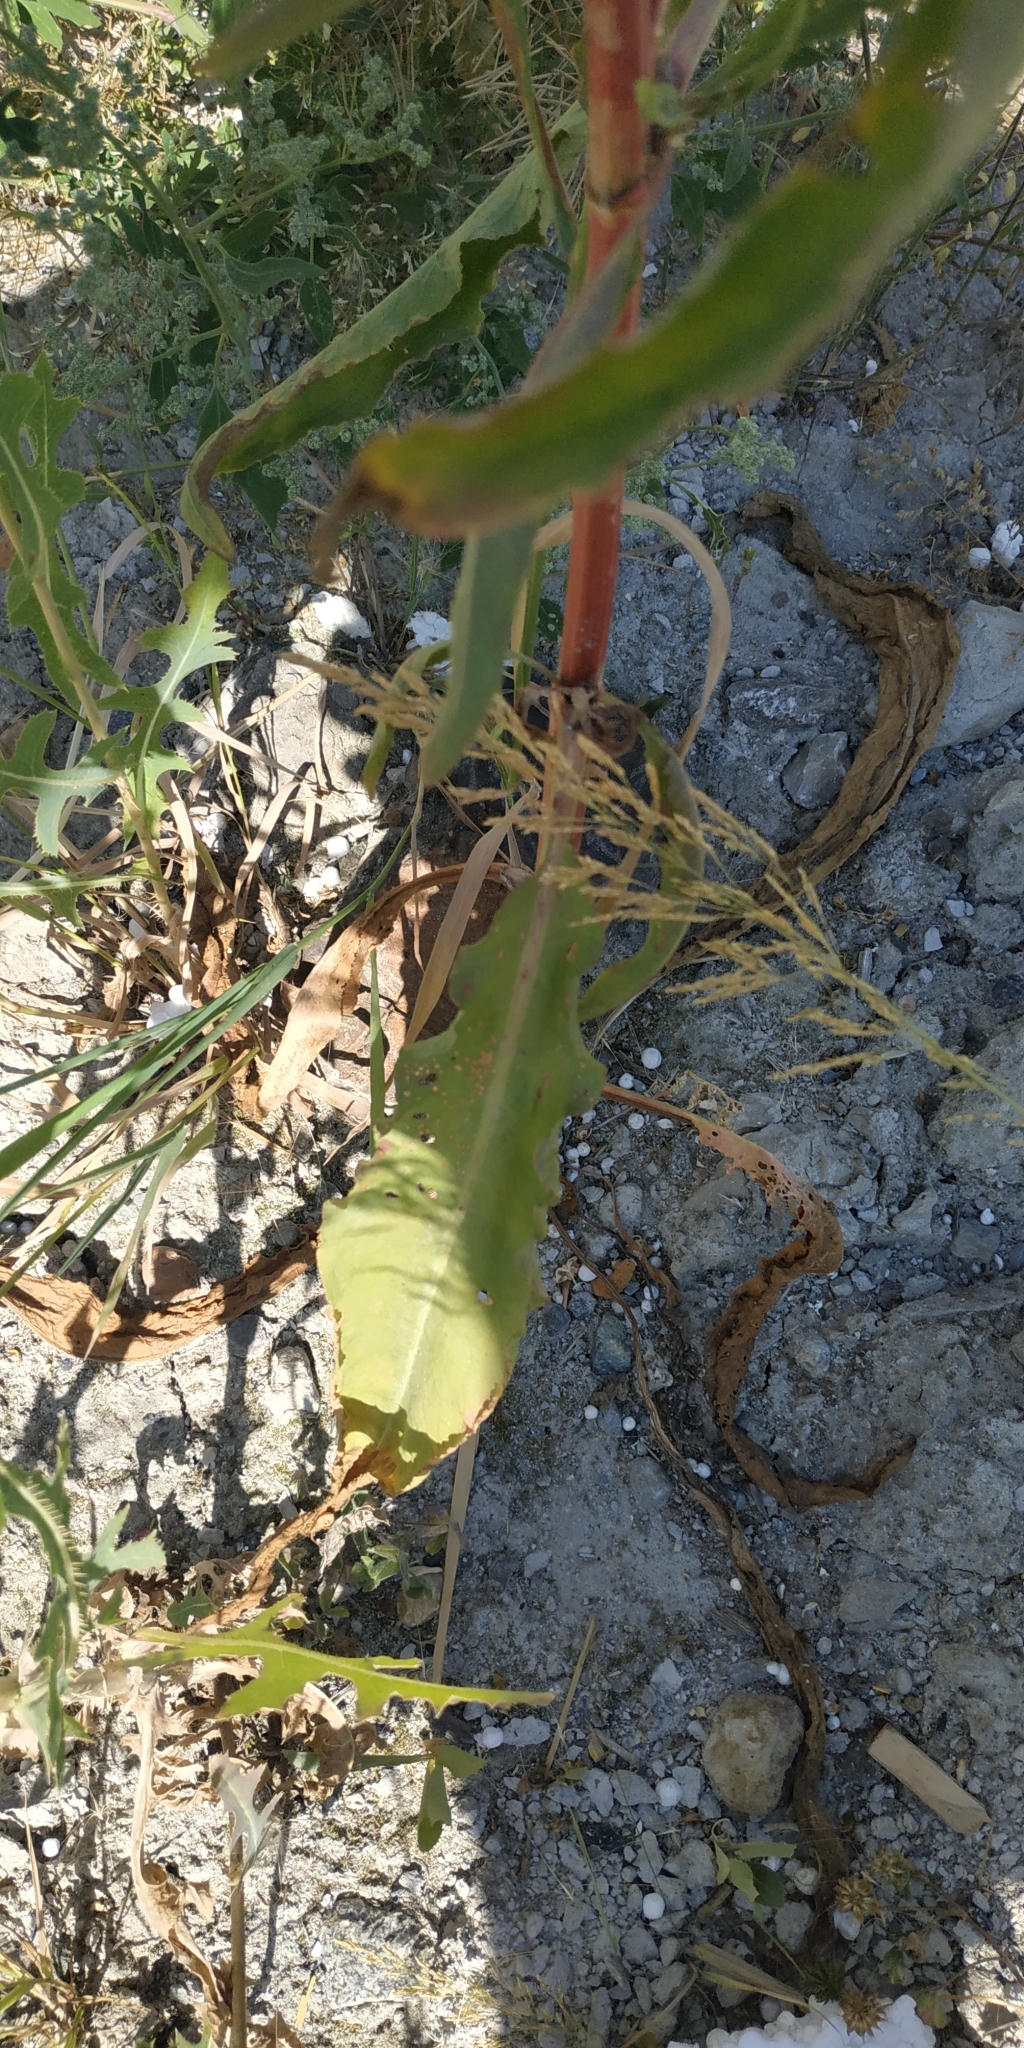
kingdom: Plantae
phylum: Tracheophyta
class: Magnoliopsida
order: Caryophyllales
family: Polygonaceae
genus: Rumex
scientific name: Rumex pseudonatronatus
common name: Field dock
